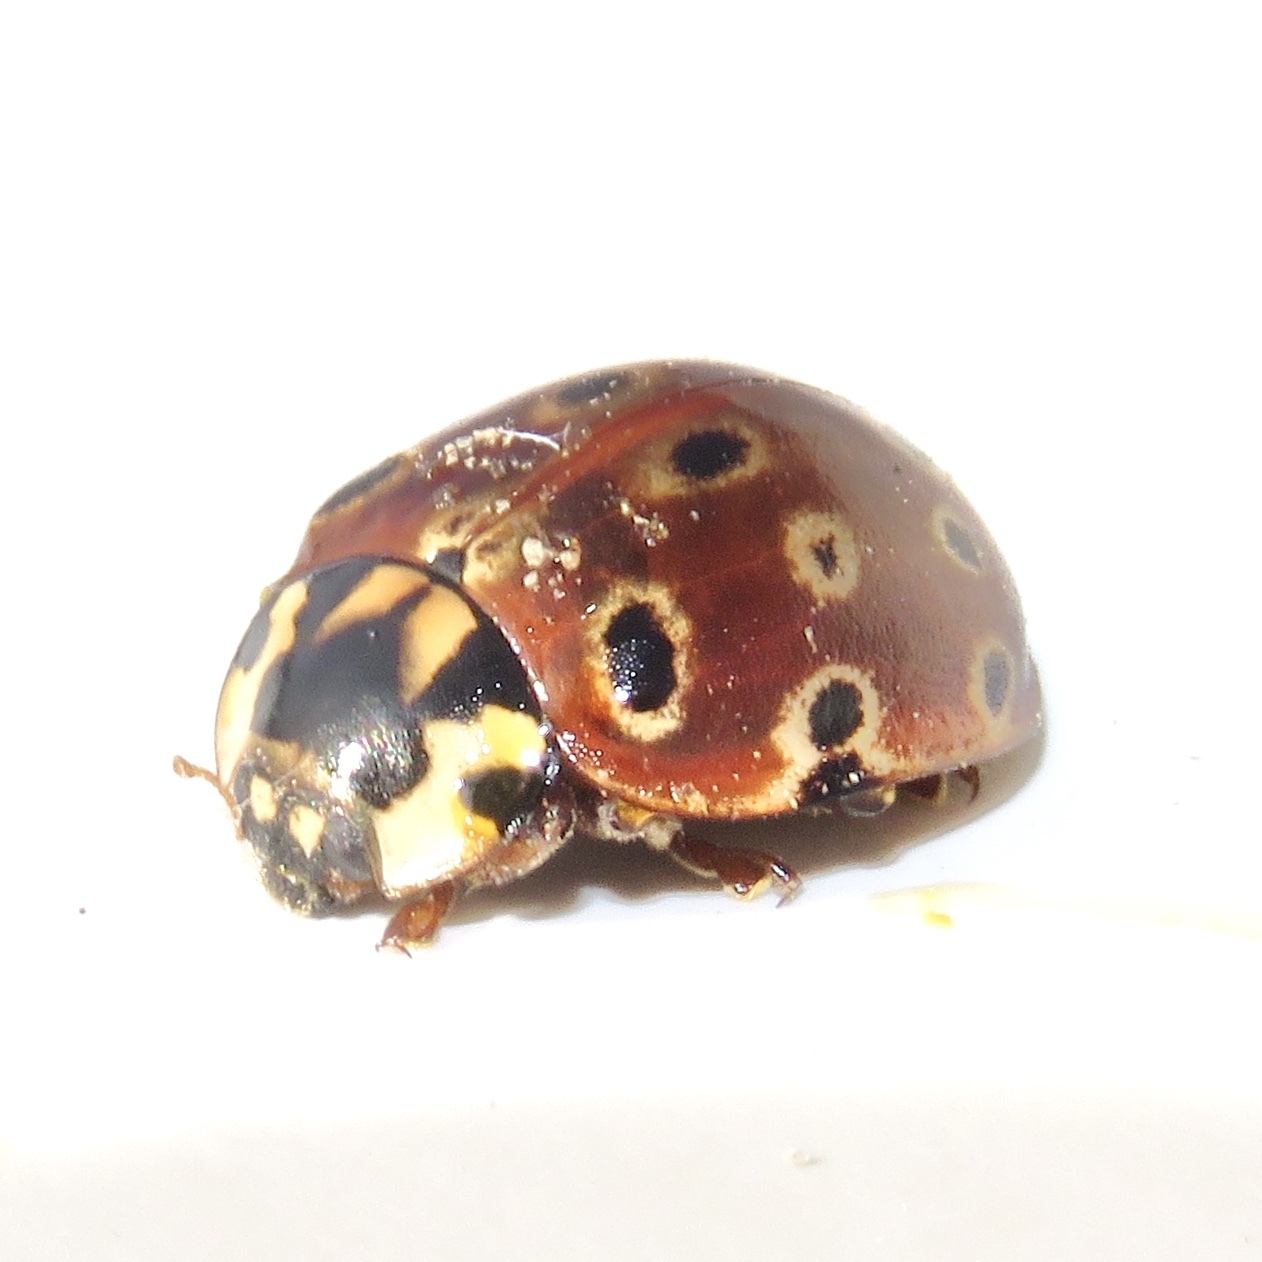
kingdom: Animalia
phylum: Arthropoda
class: Insecta
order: Coleoptera
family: Coccinellidae
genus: Anatis
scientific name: Anatis mali
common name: Eye-spotted lady beetle
